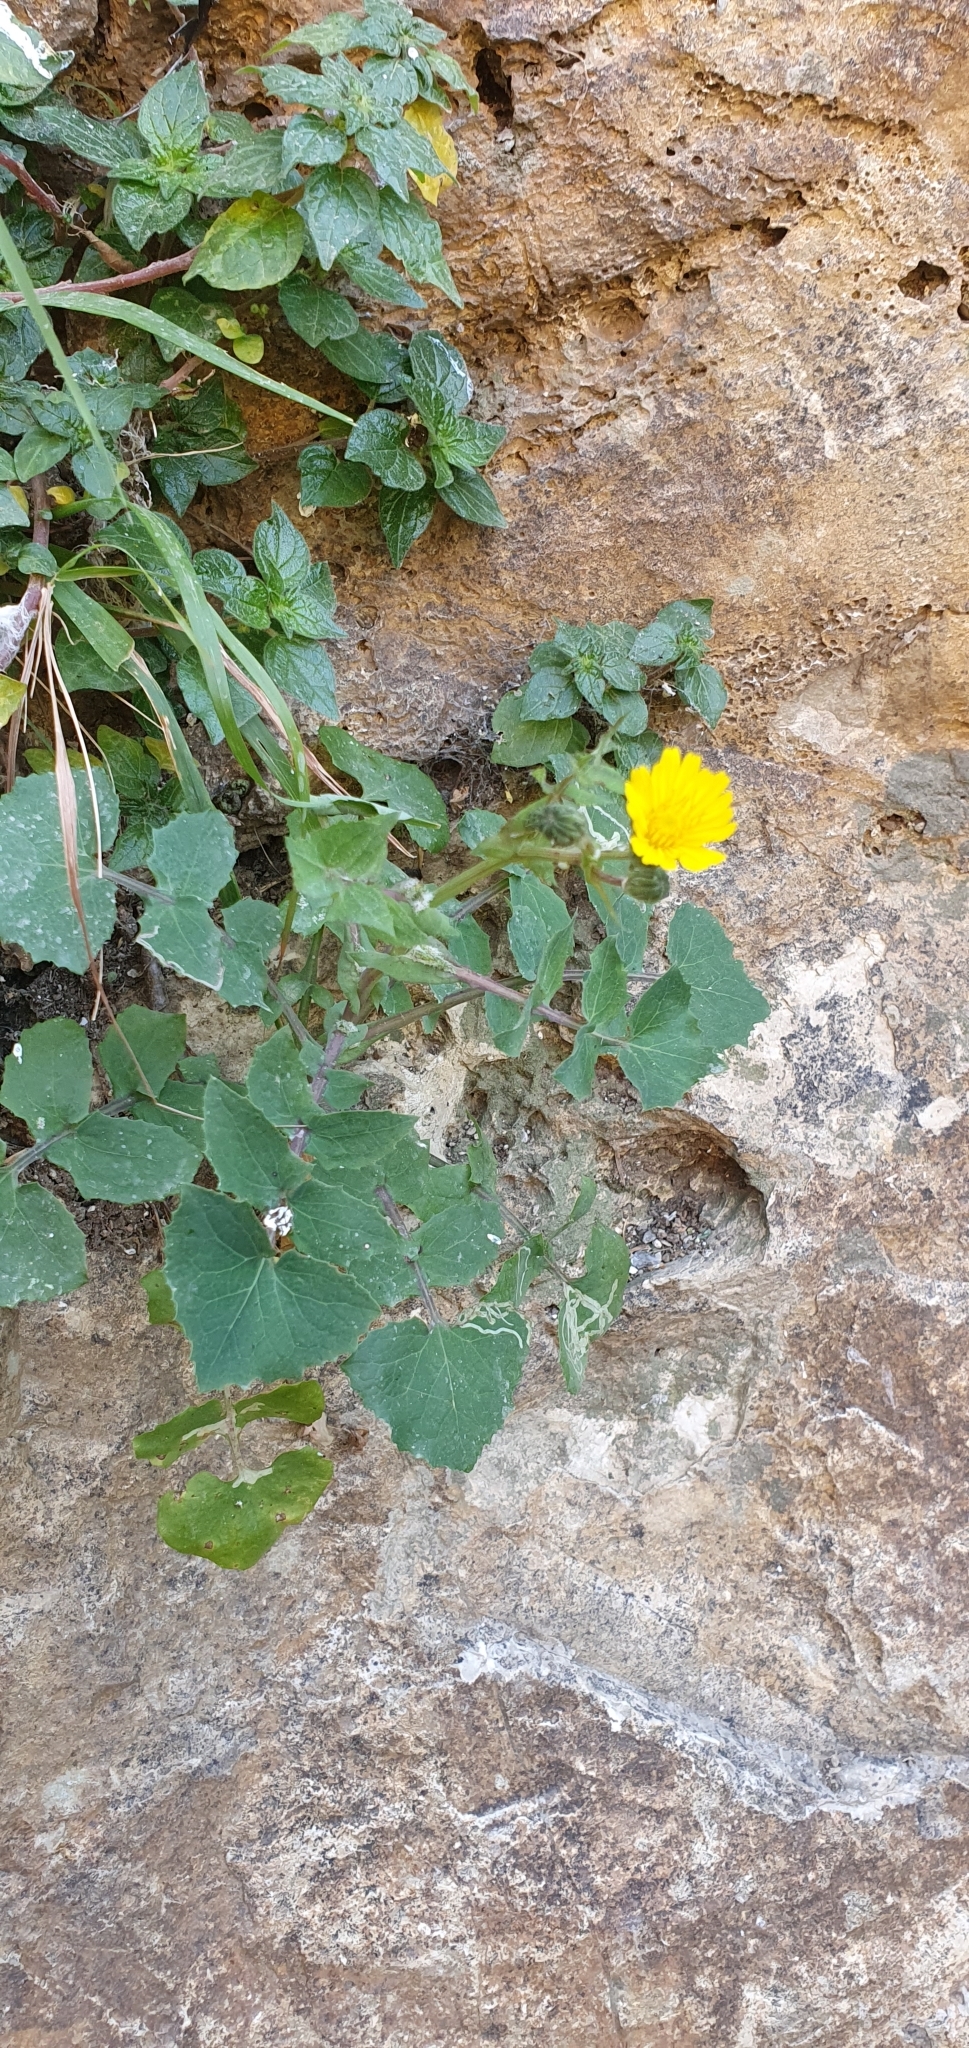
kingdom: Plantae
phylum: Tracheophyta
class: Magnoliopsida
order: Asterales
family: Asteraceae
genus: Sonchus
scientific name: Sonchus tenerrimus
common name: Clammy sowthistle
